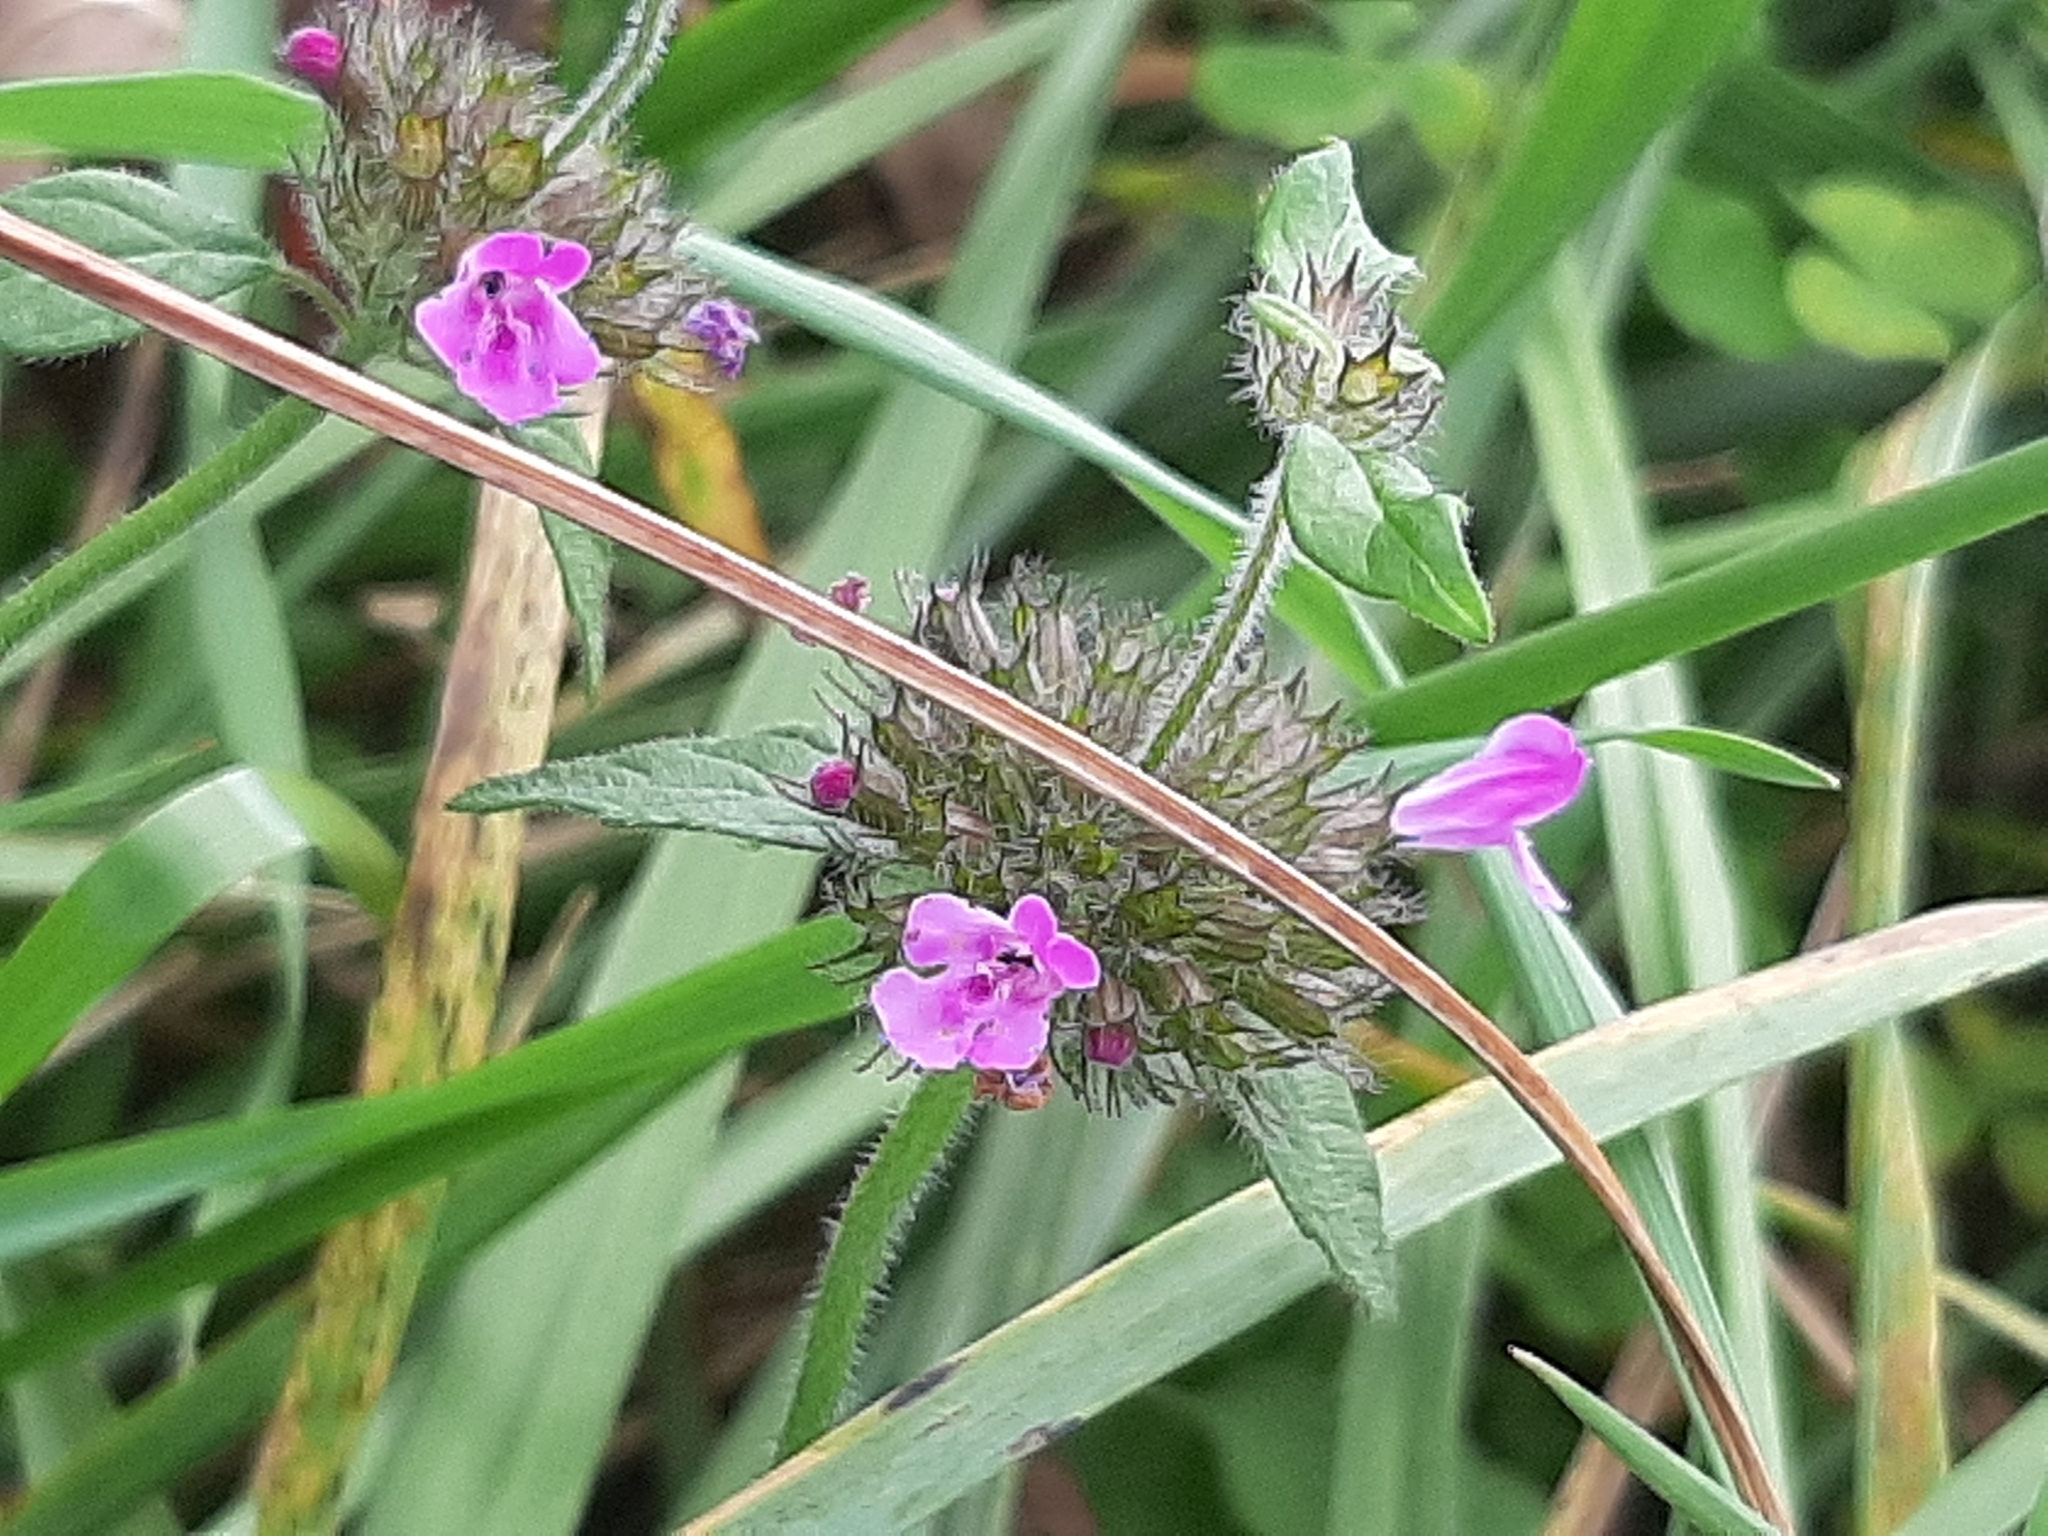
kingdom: Plantae
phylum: Tracheophyta
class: Magnoliopsida
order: Lamiales
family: Lamiaceae
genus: Clinopodium
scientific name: Clinopodium vulgare
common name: Wild basil
